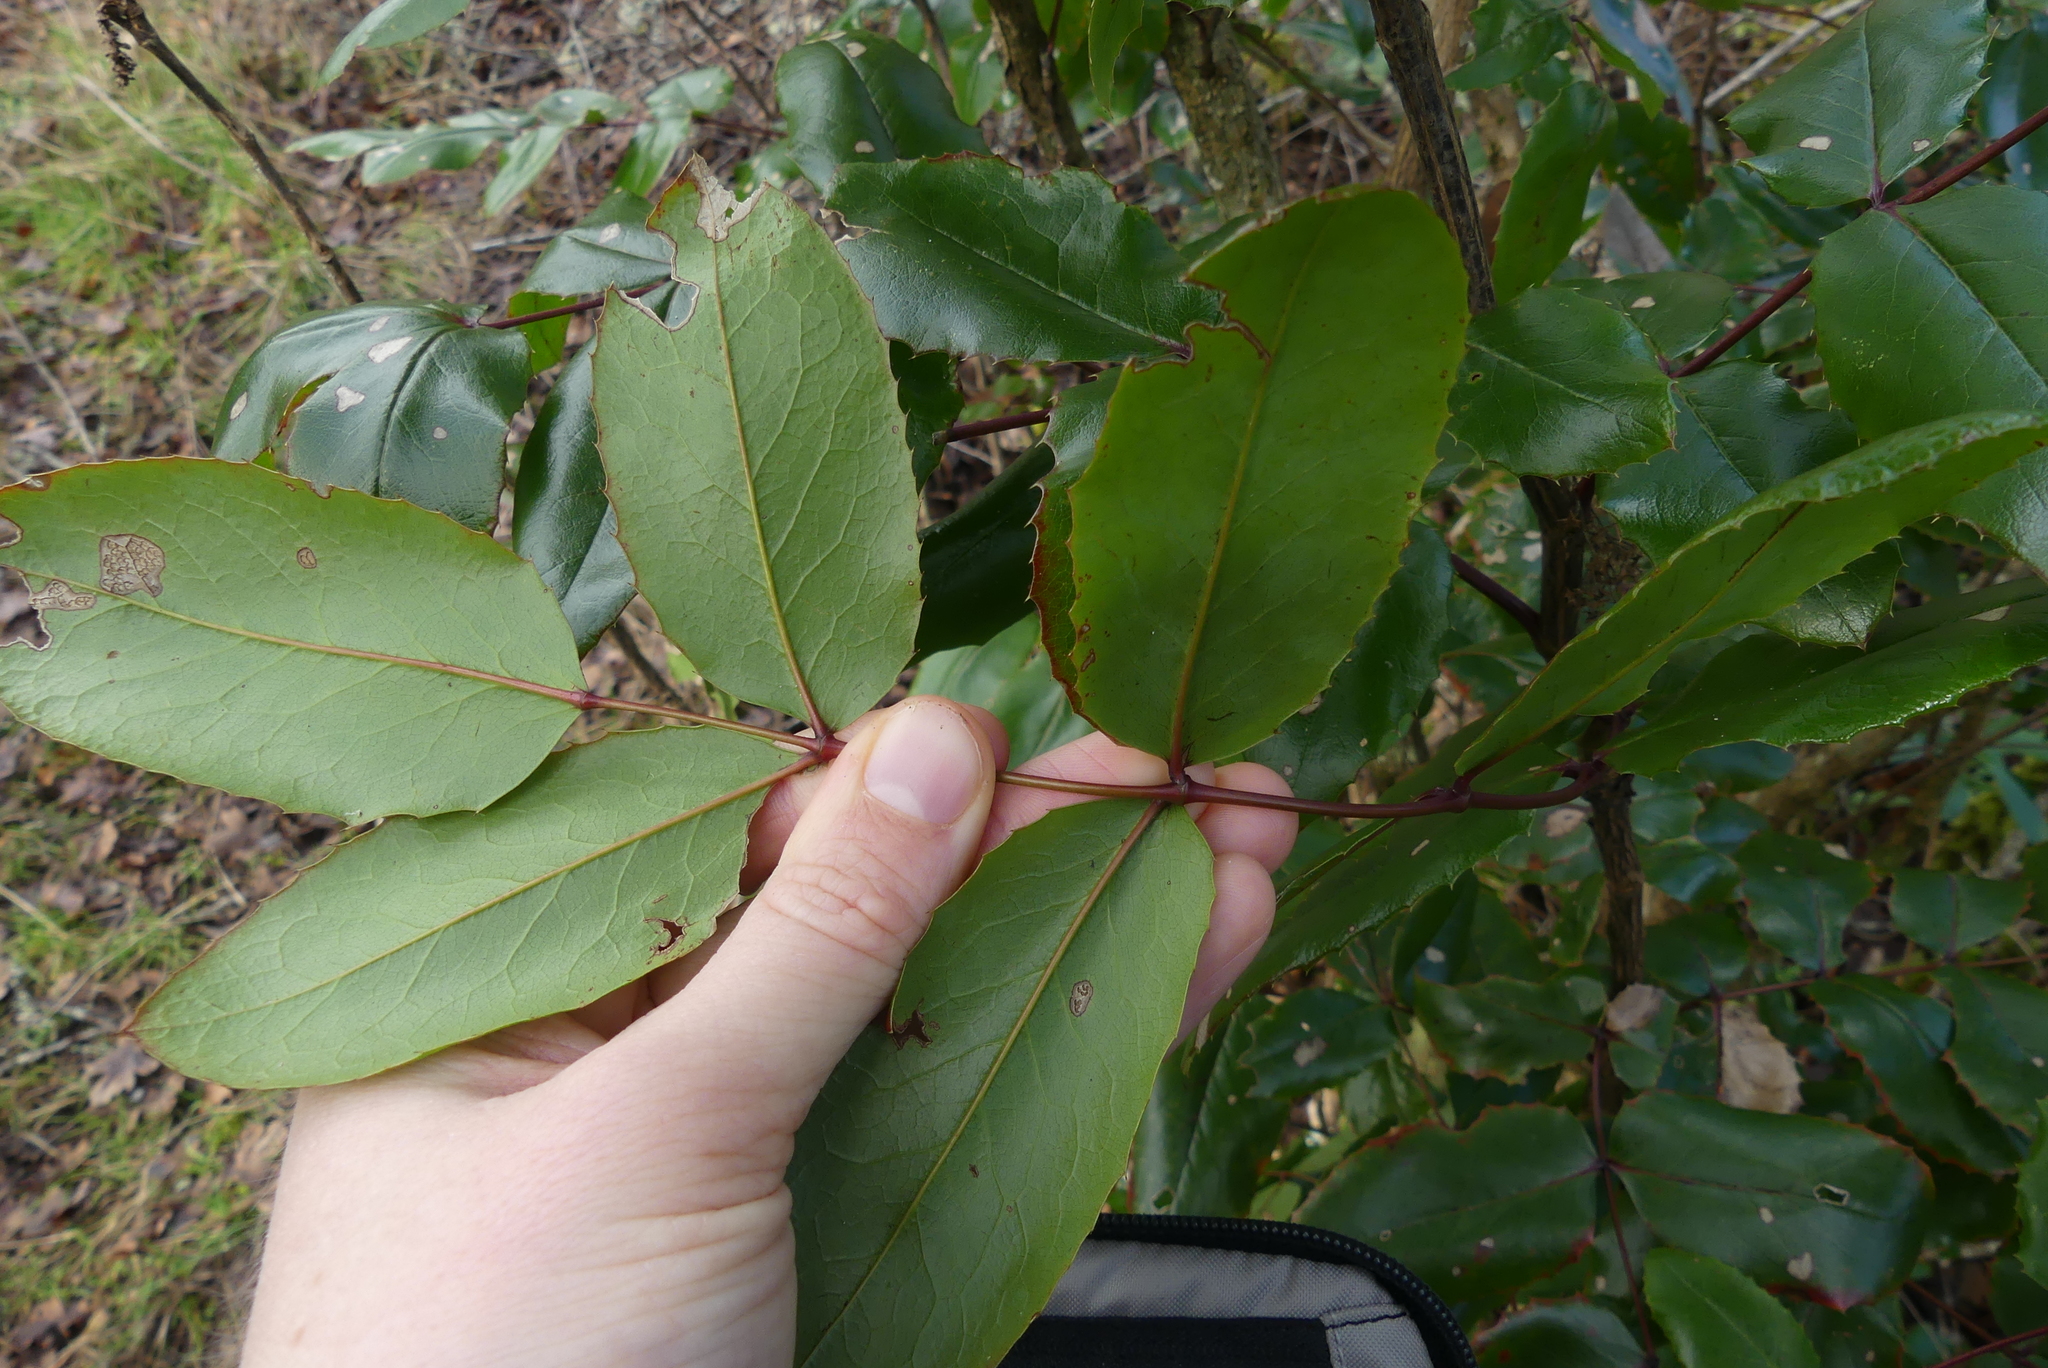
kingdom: Plantae
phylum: Tracheophyta
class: Magnoliopsida
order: Ranunculales
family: Berberidaceae
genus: Mahonia
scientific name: Mahonia aquifolium
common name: Oregon-grape
